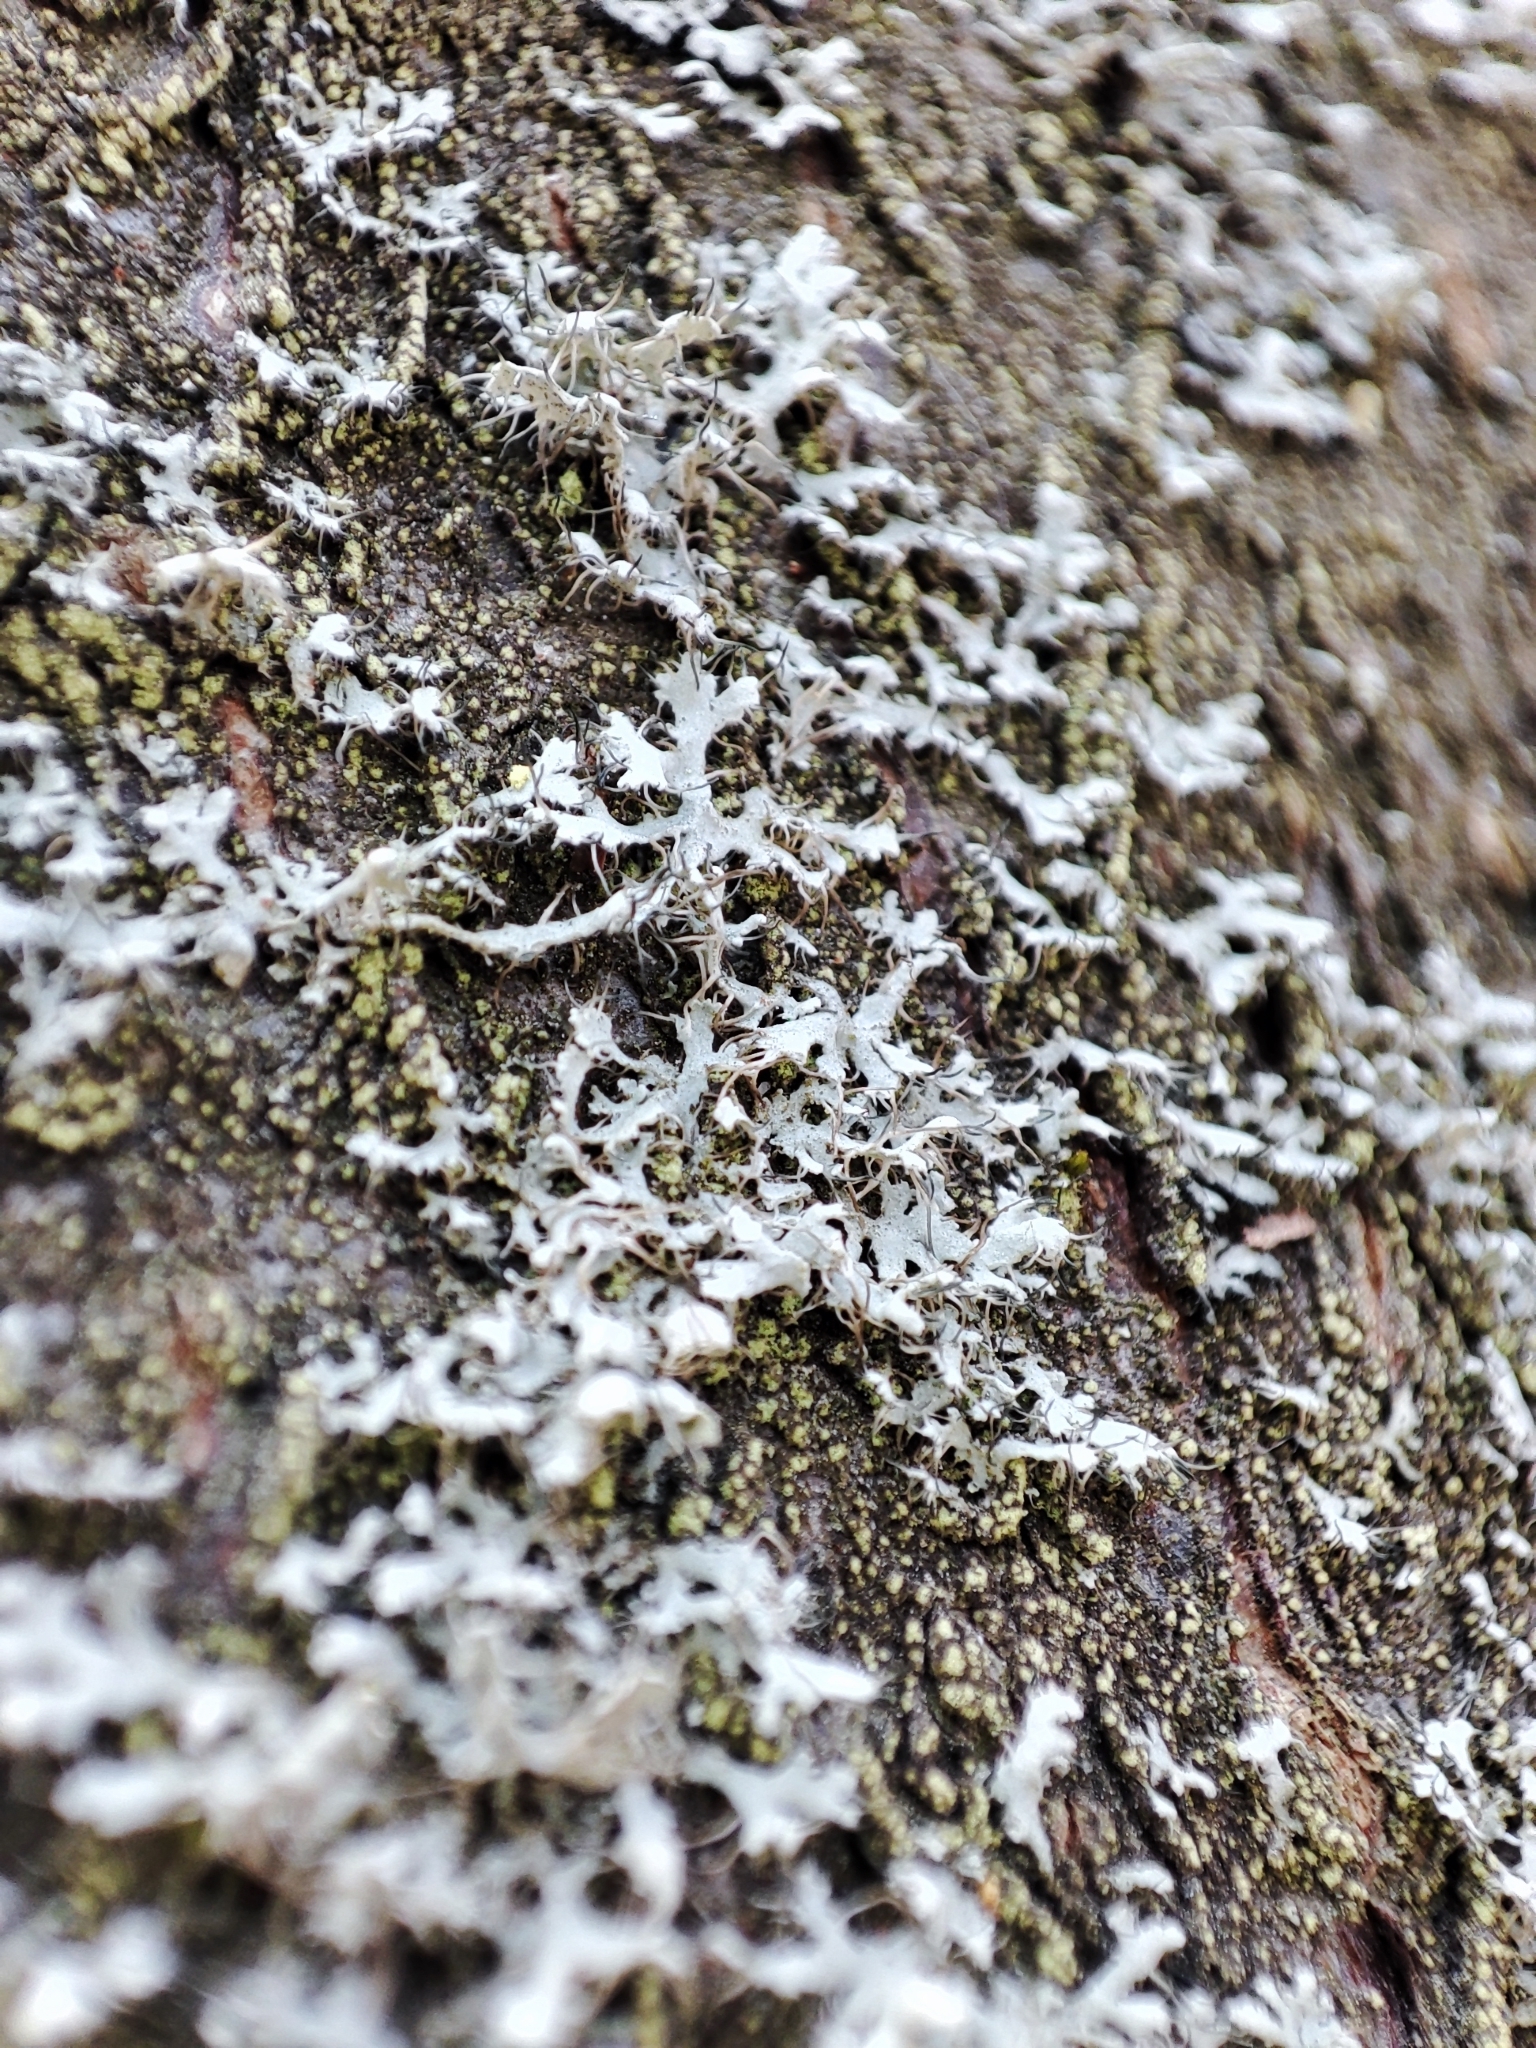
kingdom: Fungi
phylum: Ascomycota
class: Lecanoromycetes
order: Caliciales
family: Physciaceae
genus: Physcia
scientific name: Physcia tenella
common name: Fringed rosette lichen
